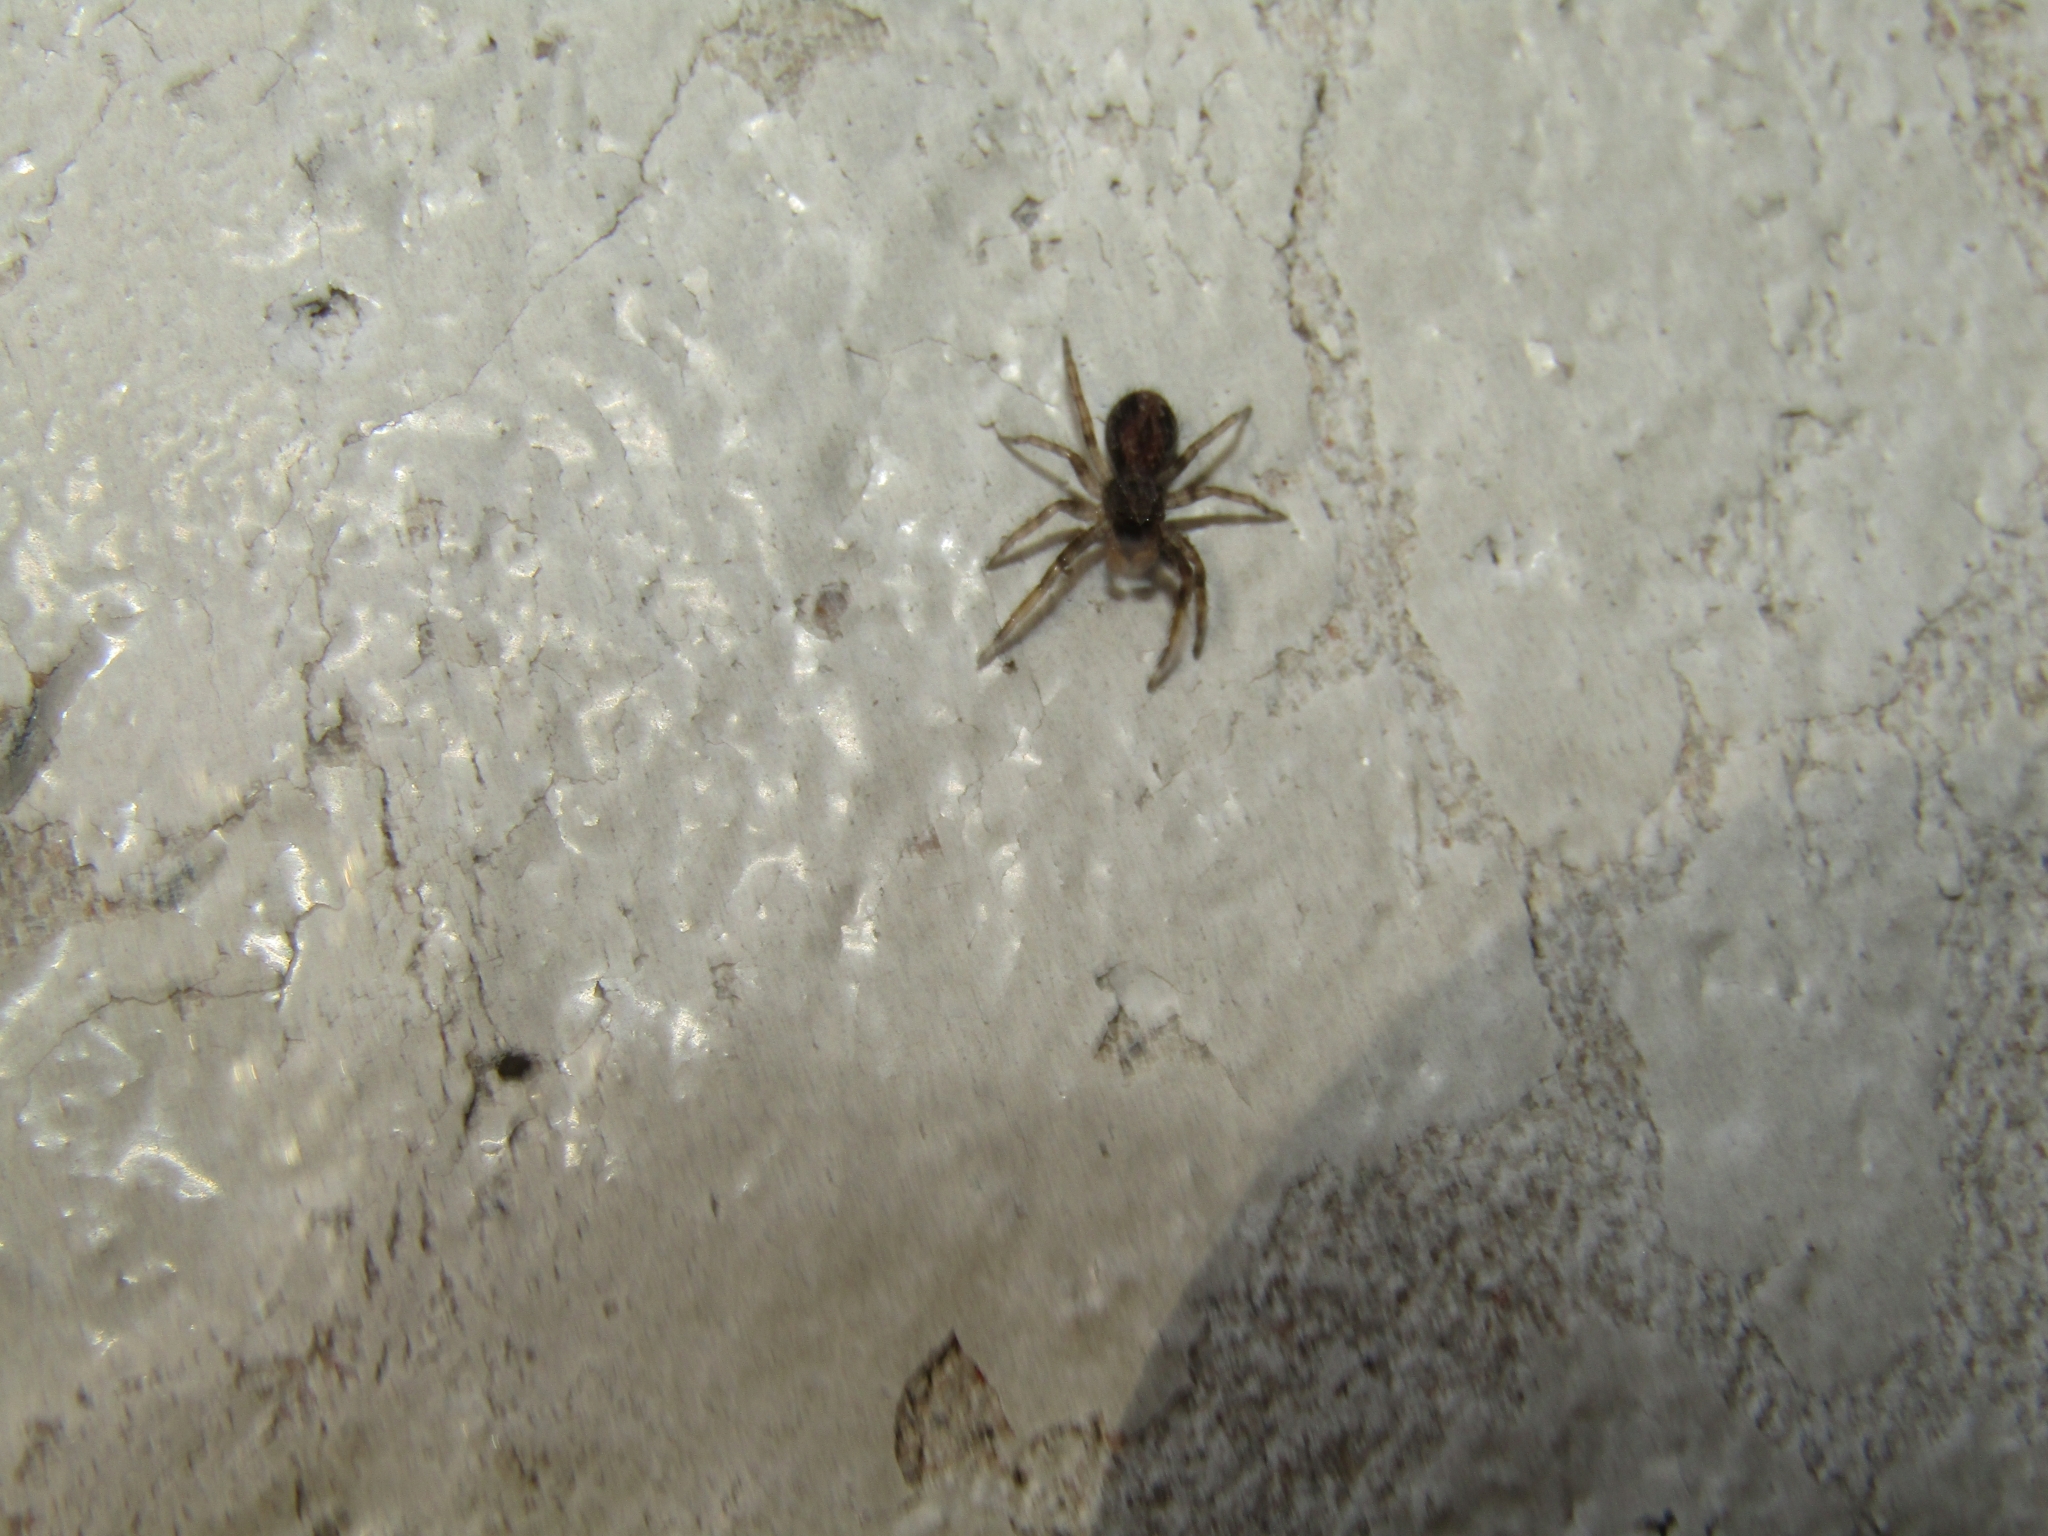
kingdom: Animalia
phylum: Arthropoda
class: Arachnida
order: Araneae
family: Salticidae
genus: Titanattus
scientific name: Titanattus andinus
